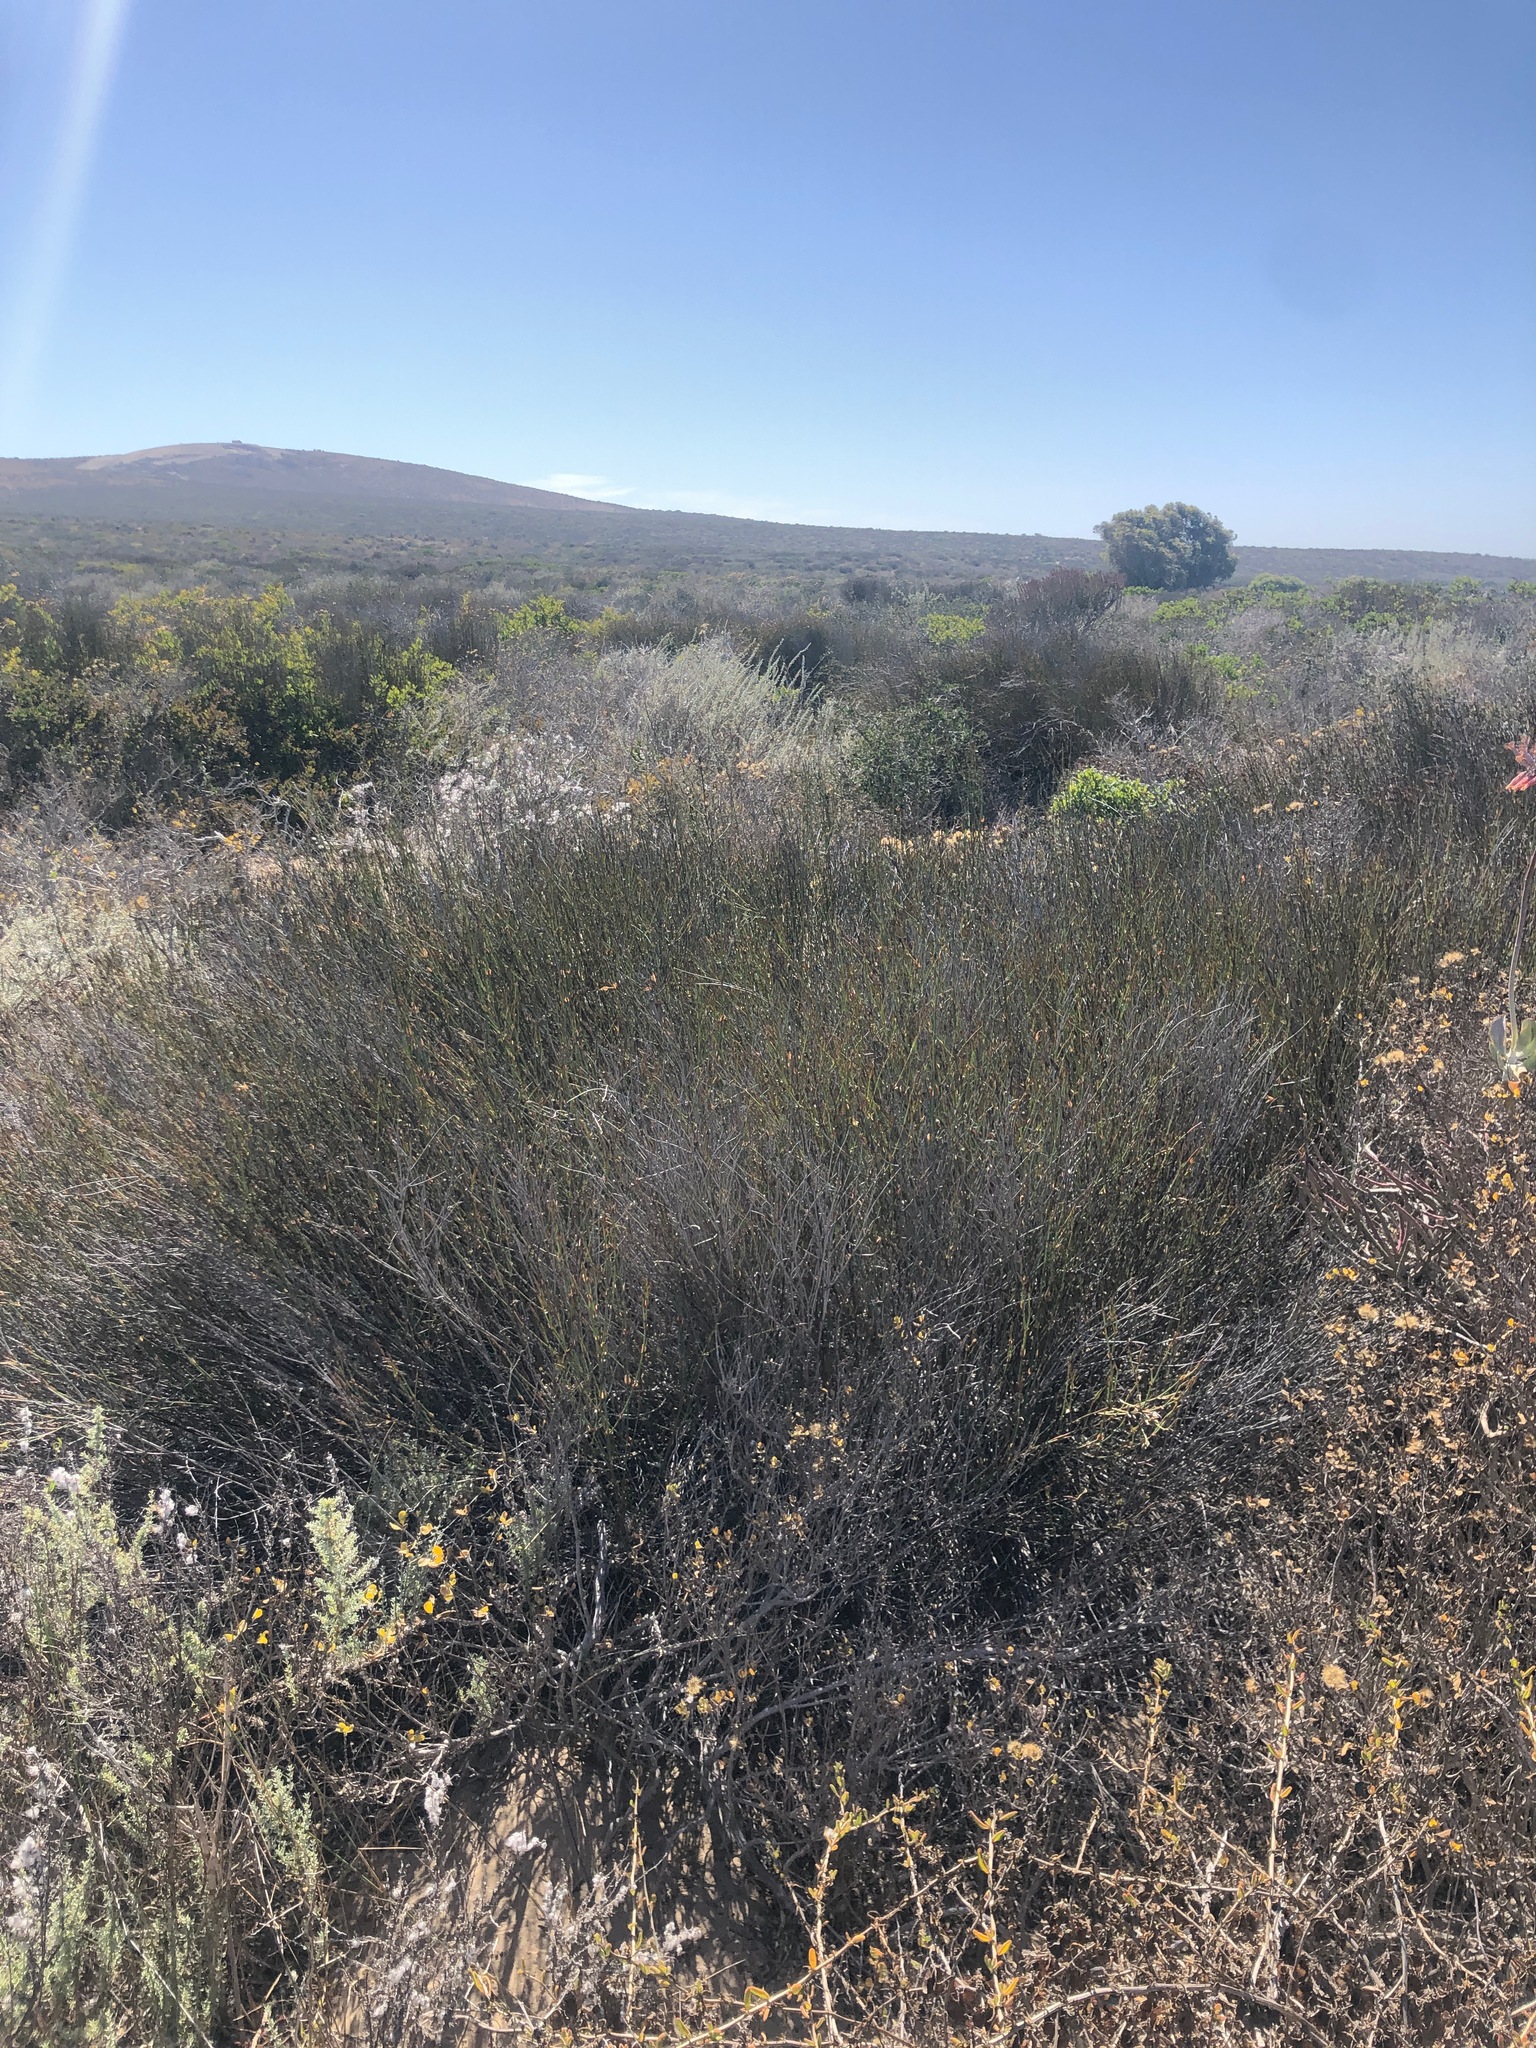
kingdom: Plantae
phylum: Tracheophyta
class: Liliopsida
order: Poales
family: Restionaceae
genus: Willdenowia
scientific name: Willdenowia incurvata
